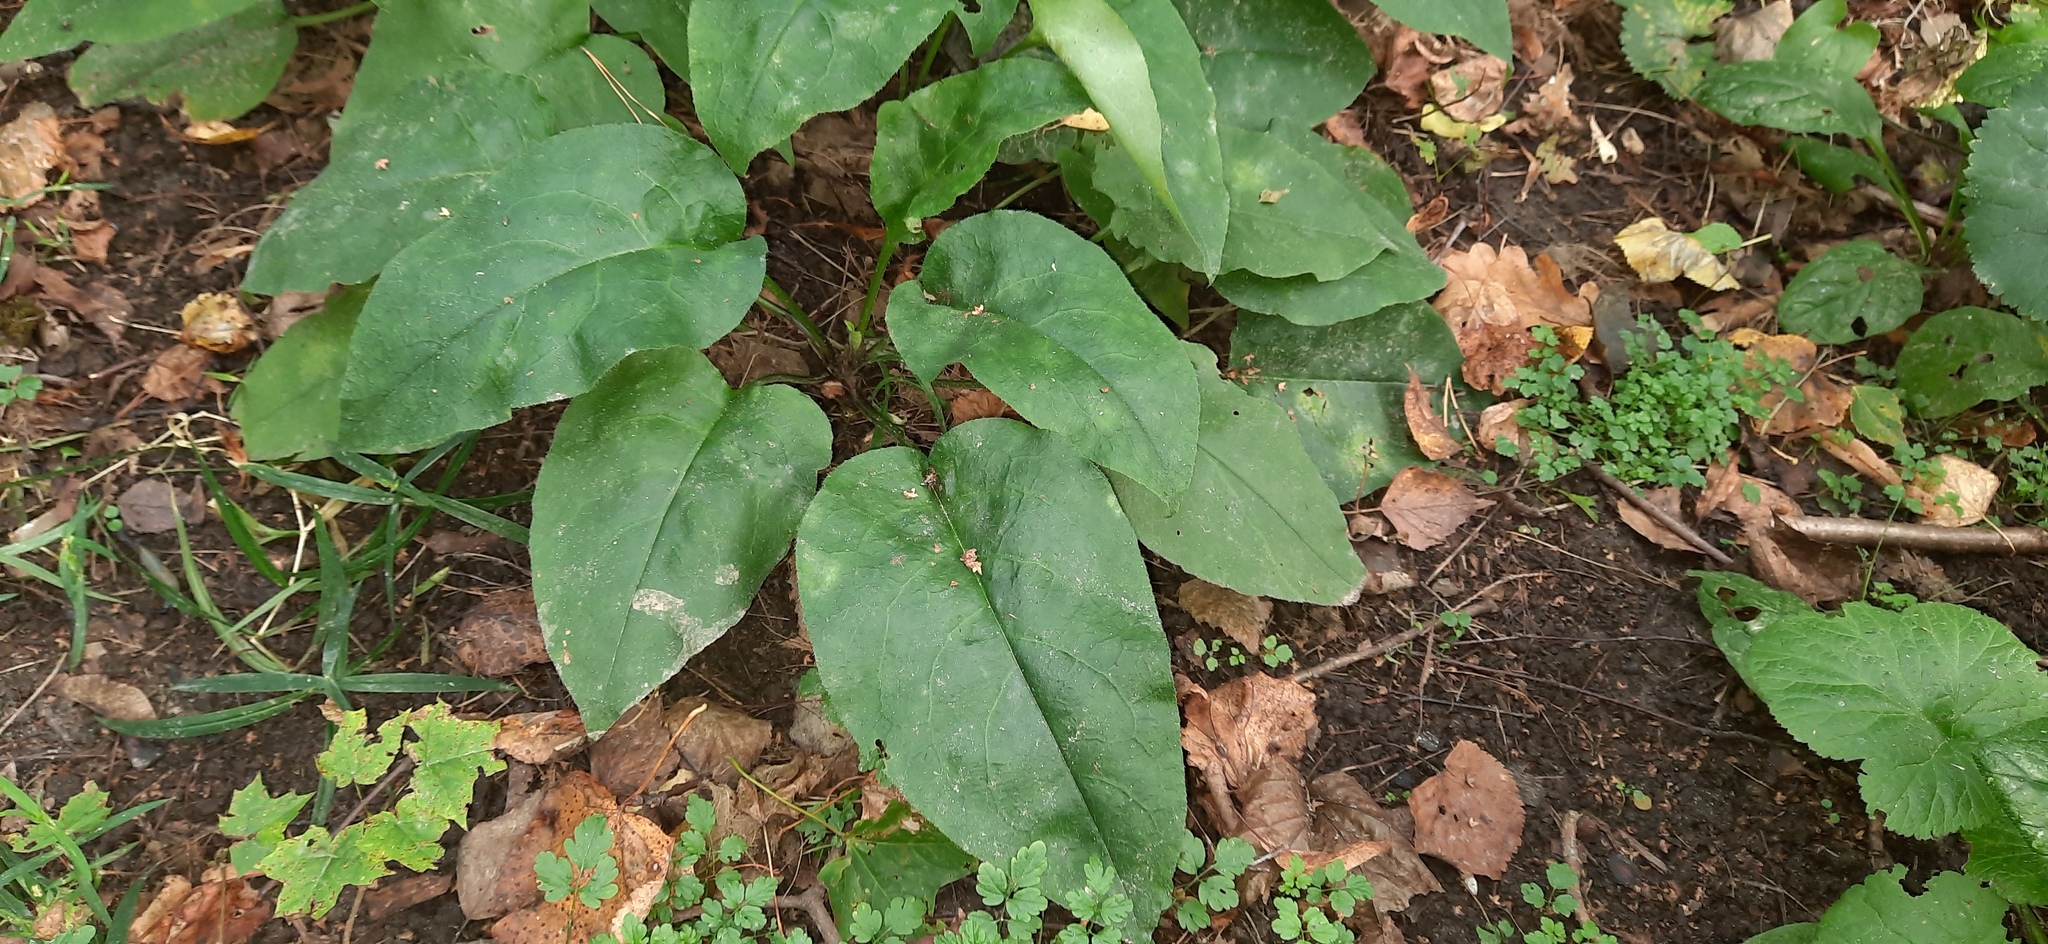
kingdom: Plantae
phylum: Tracheophyta
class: Magnoliopsida
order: Boraginales
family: Boraginaceae
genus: Pulmonaria
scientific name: Pulmonaria obscura
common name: Suffolk lungwort
